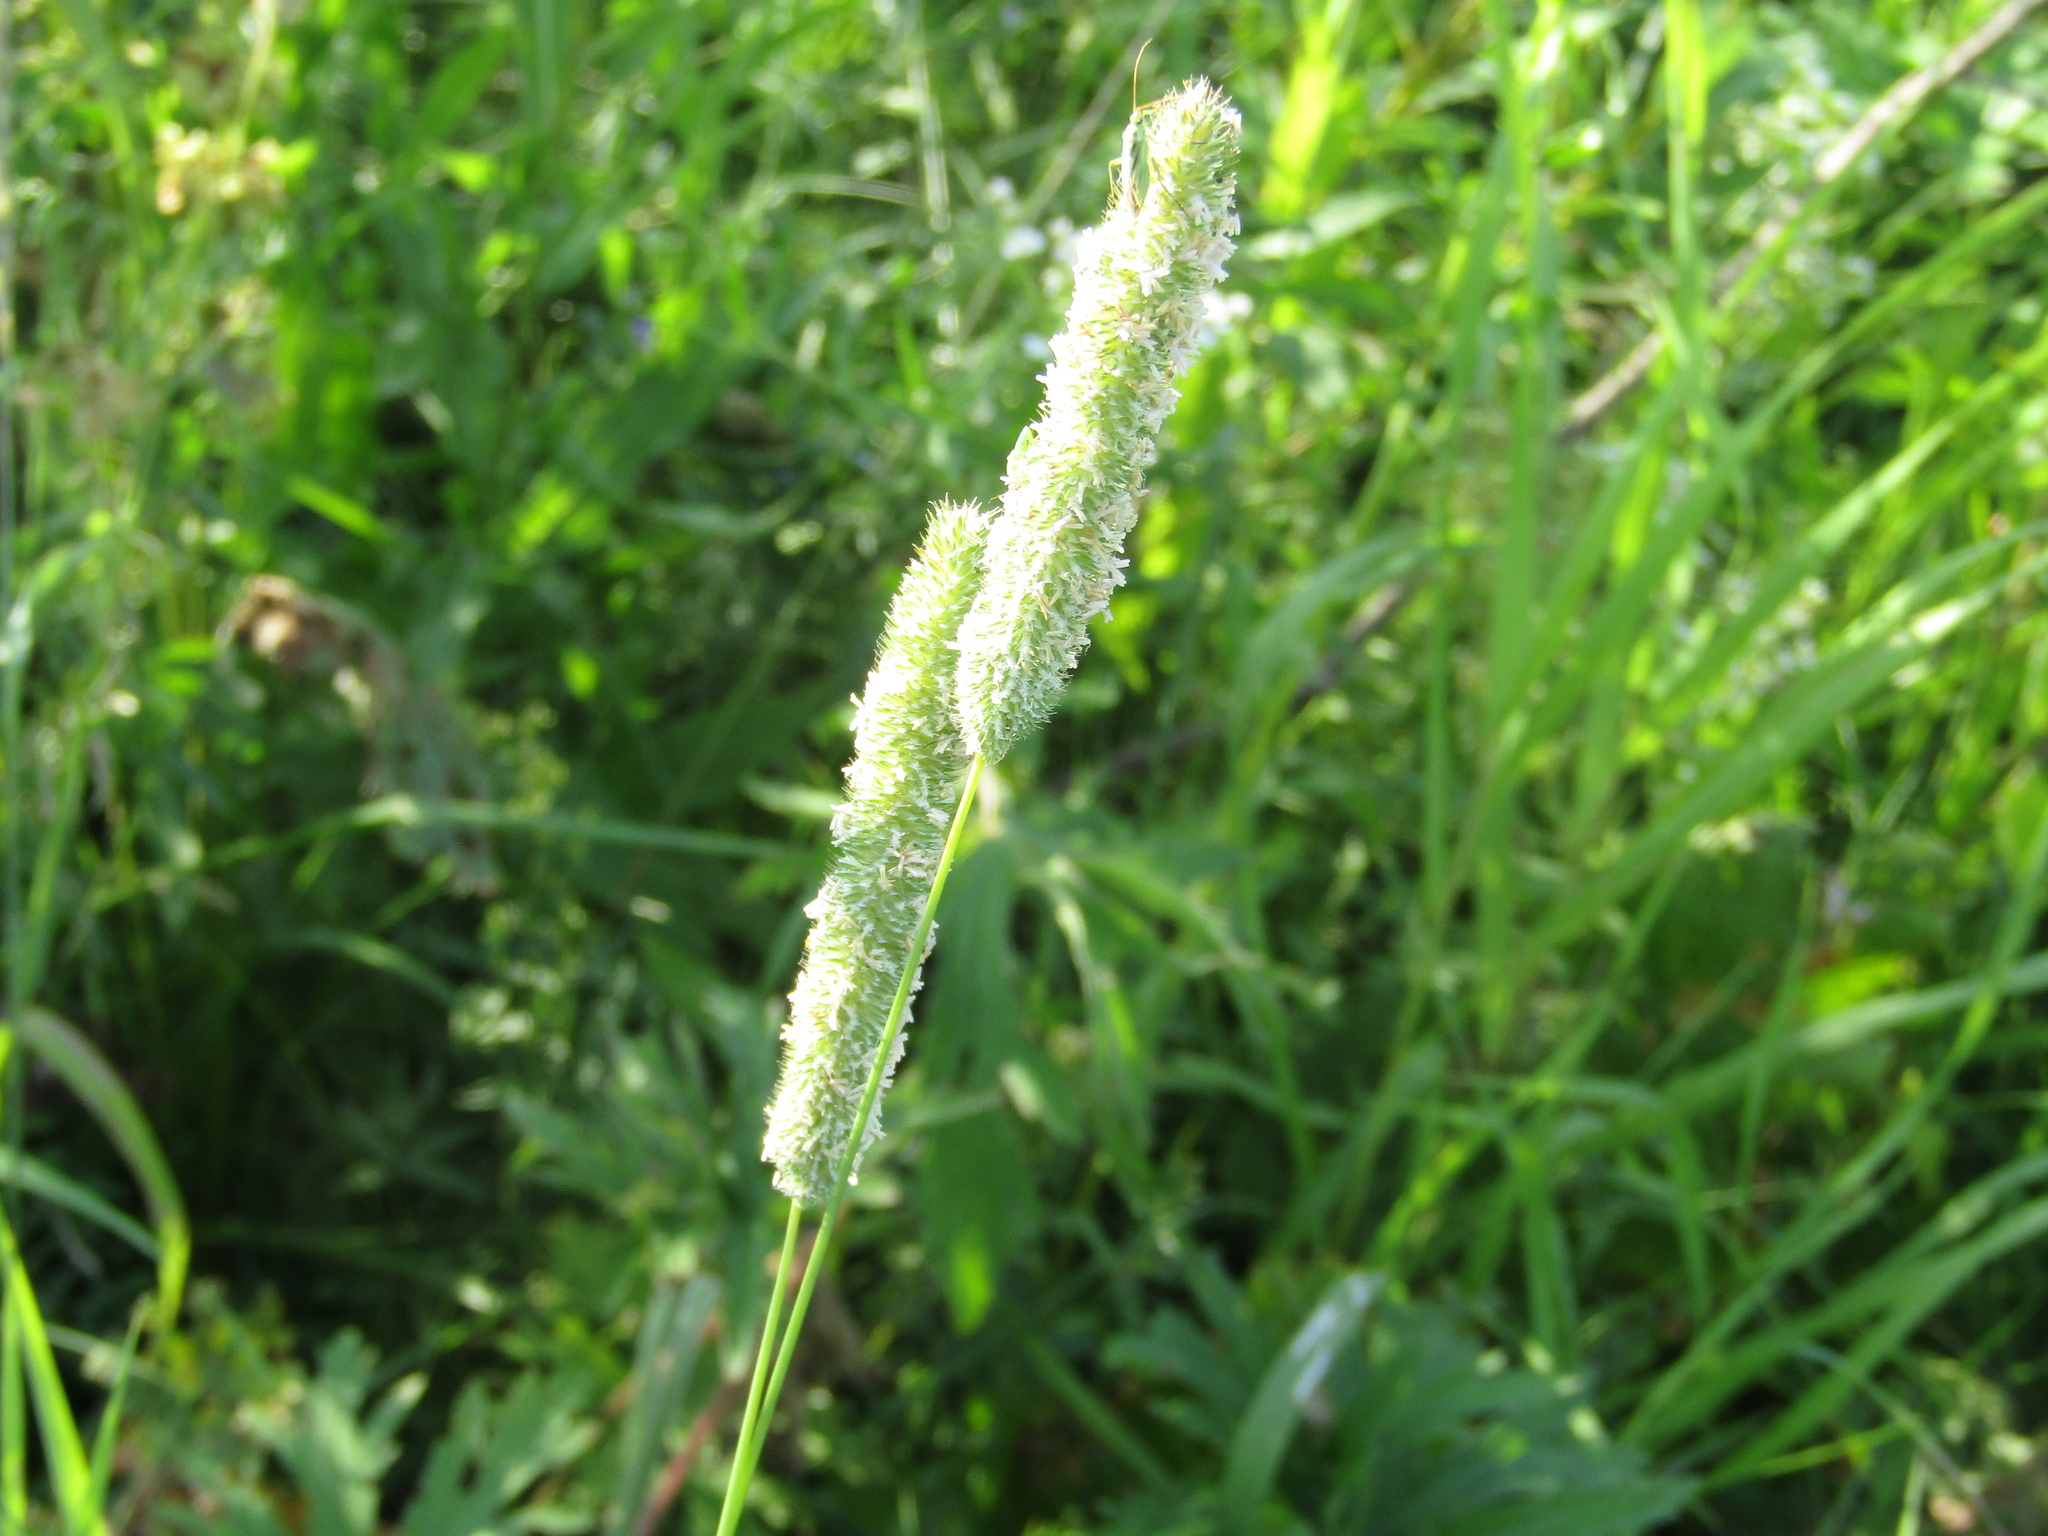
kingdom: Plantae
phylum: Tracheophyta
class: Liliopsida
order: Poales
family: Poaceae
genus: Phleum
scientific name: Phleum pratense
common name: Timothy grass
